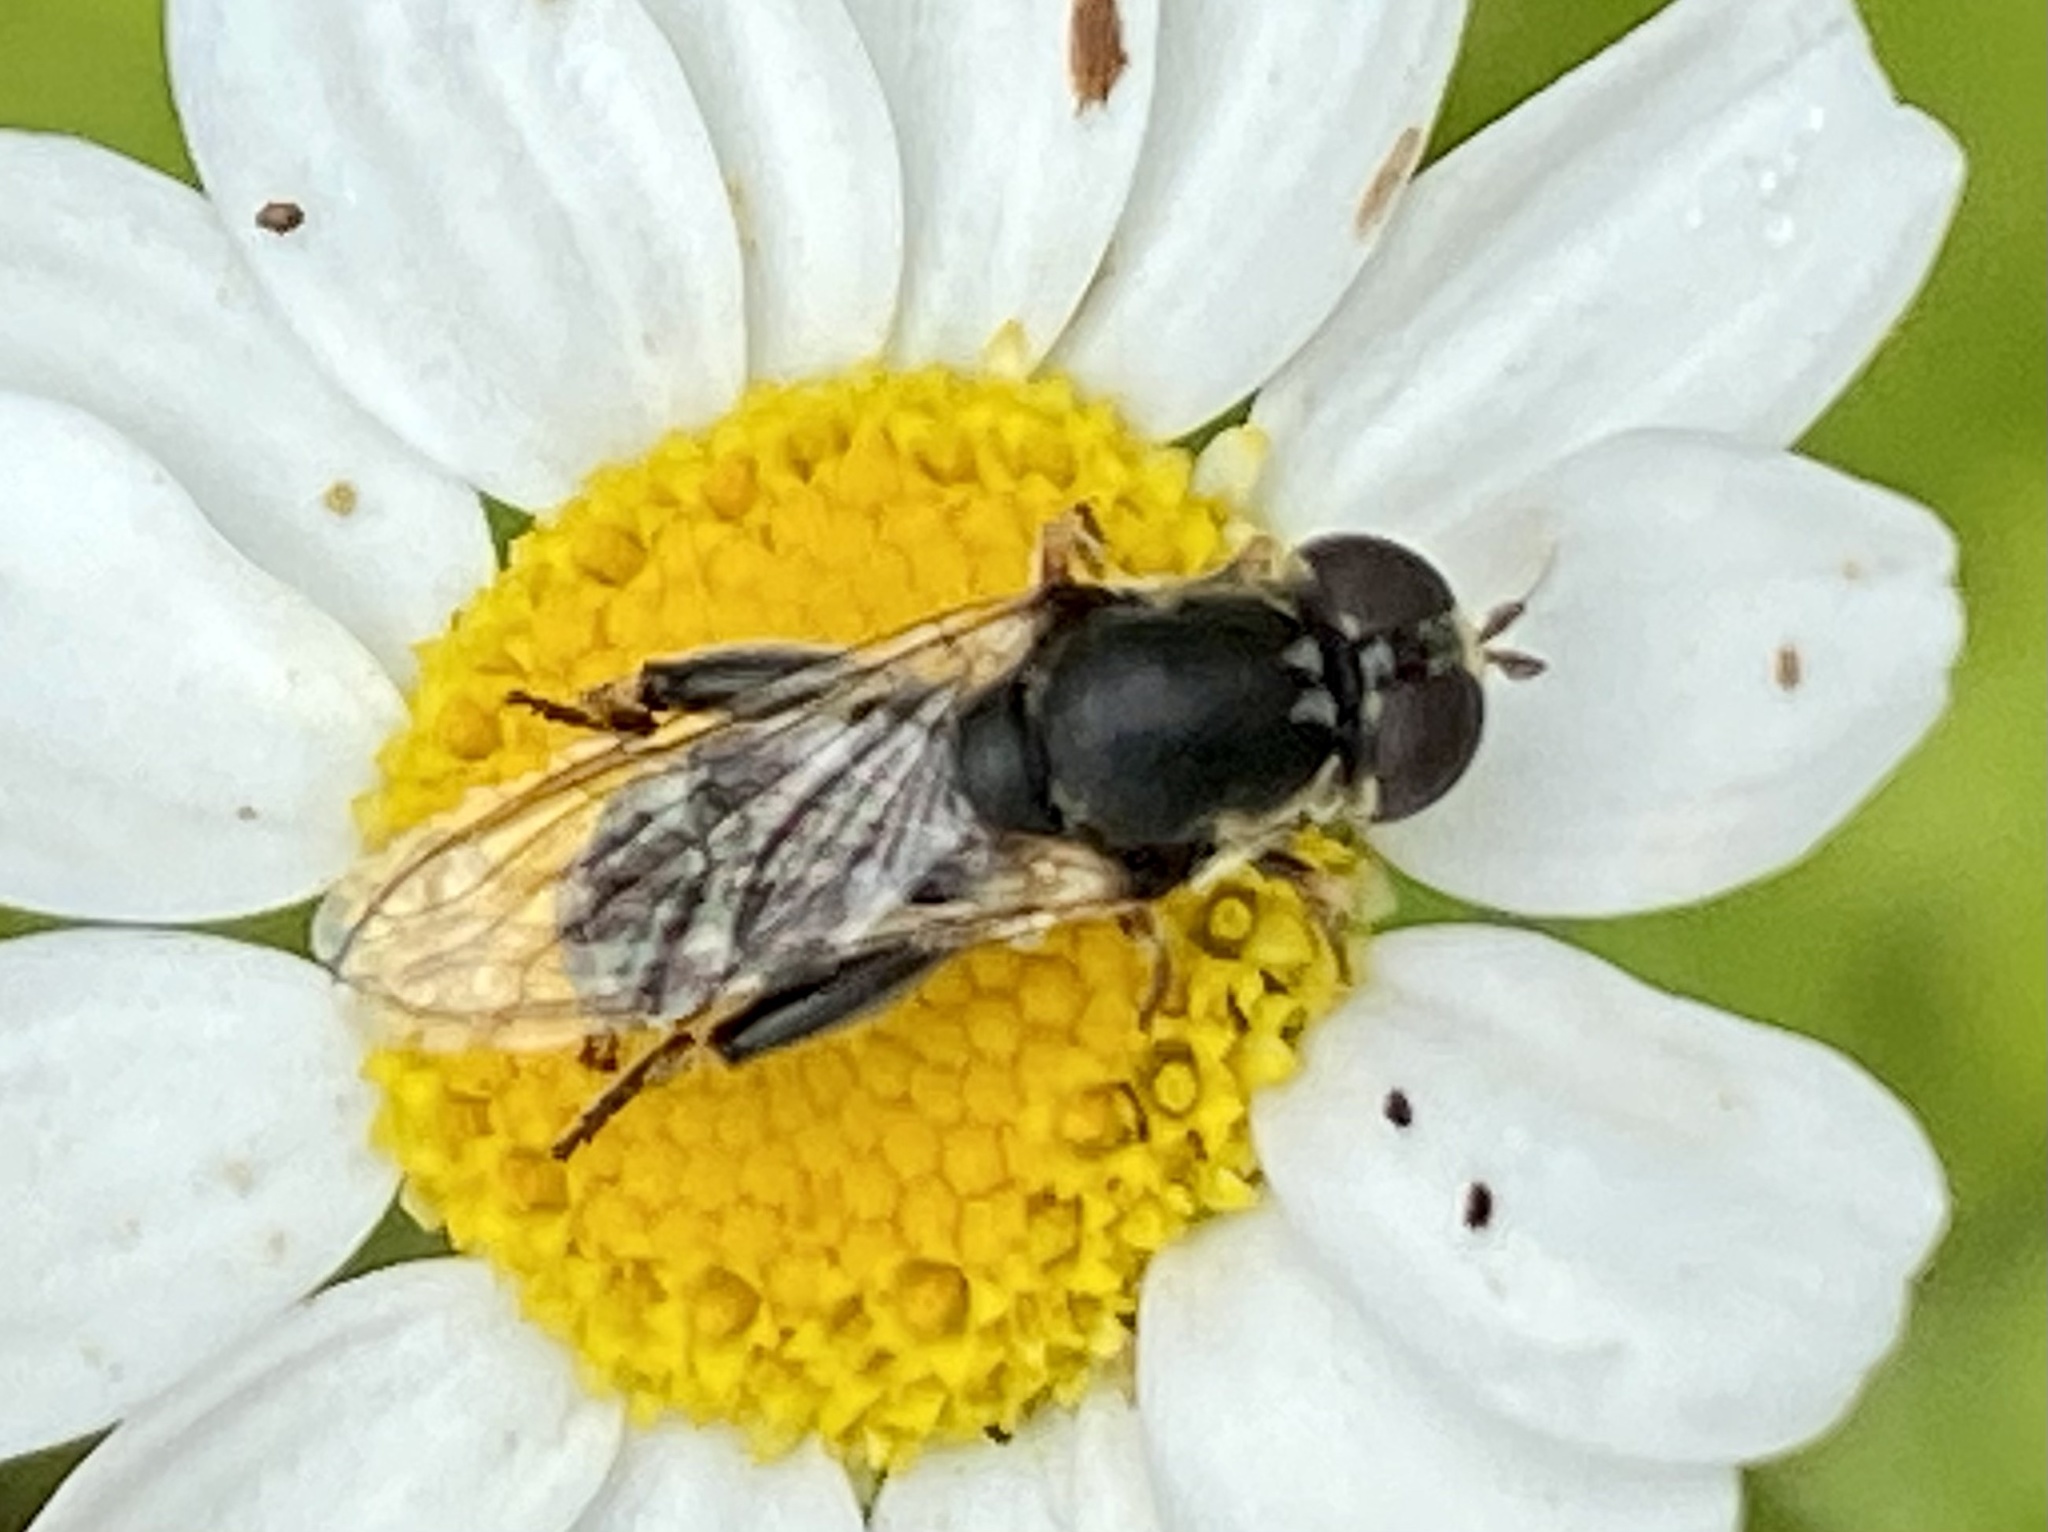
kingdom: Animalia
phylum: Arthropoda
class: Insecta
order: Diptera
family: Syrphidae
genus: Syritta
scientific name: Syritta pipiens
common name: Hover fly
